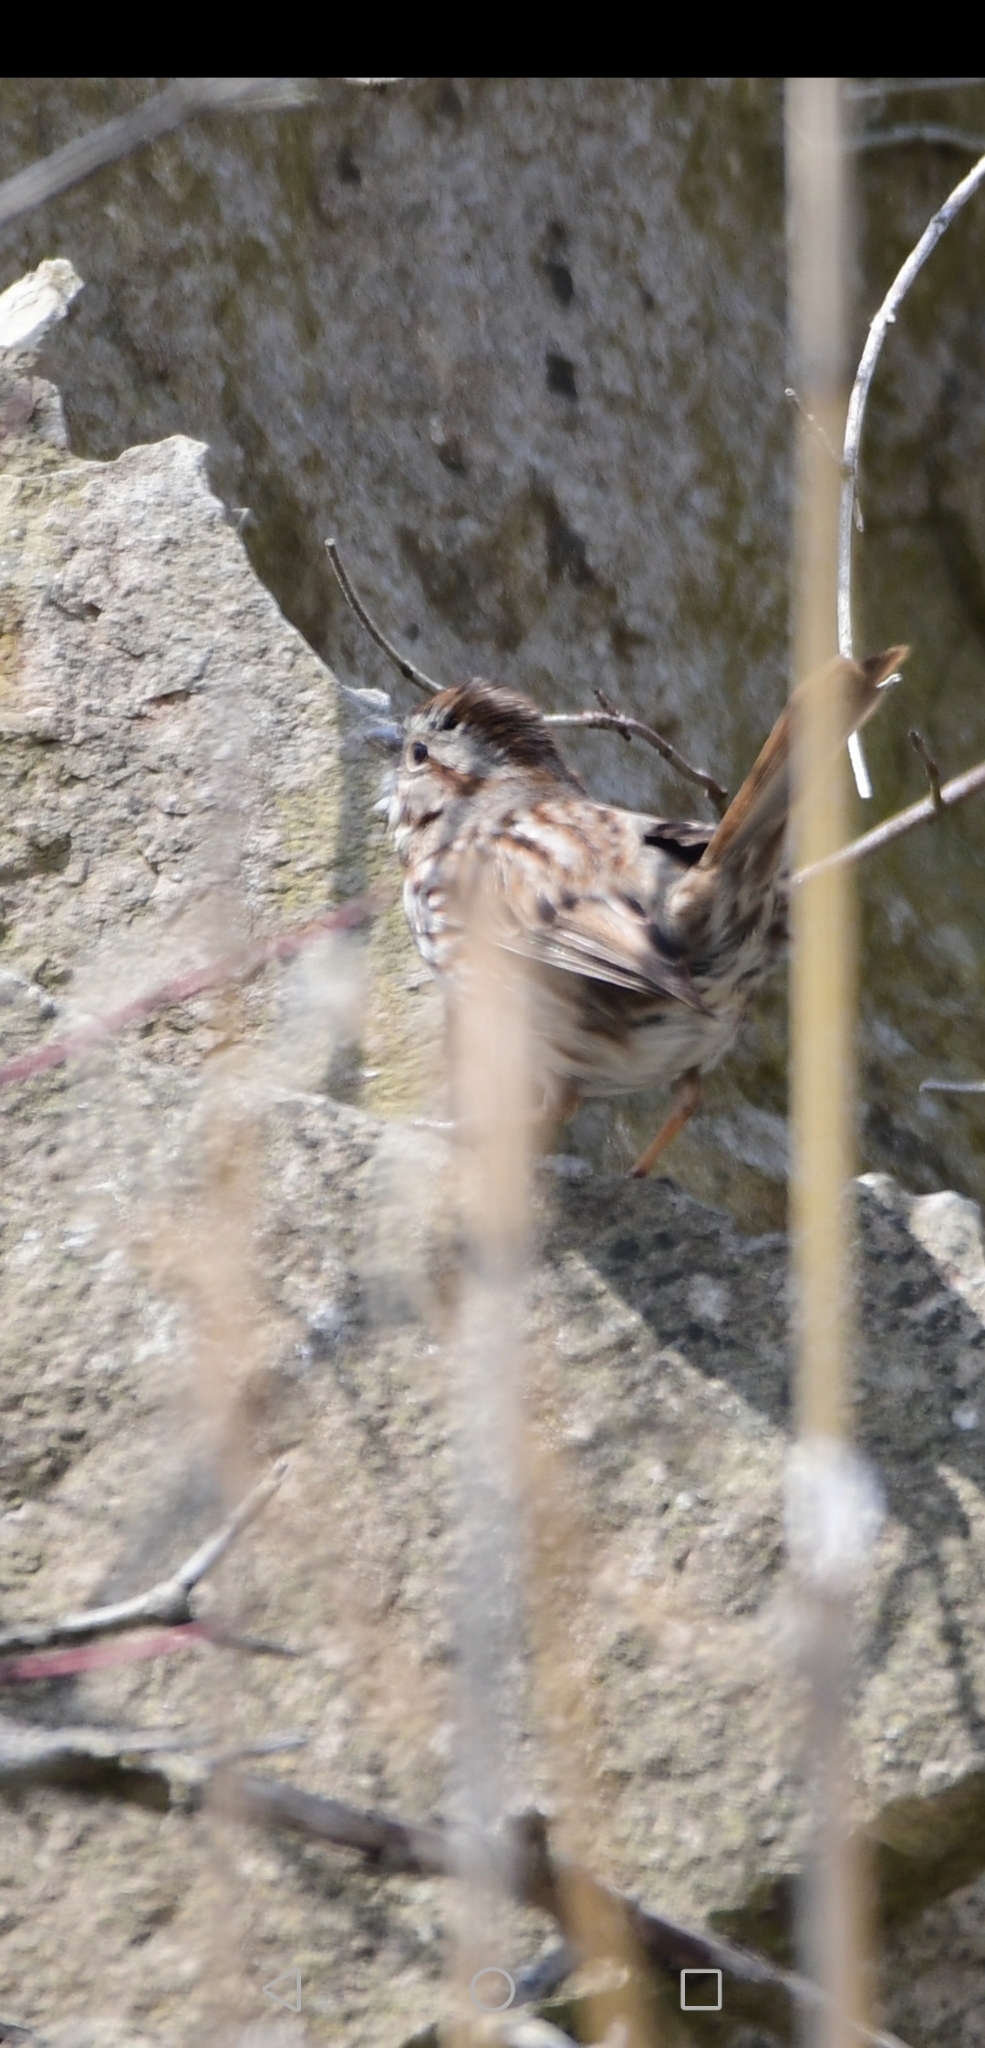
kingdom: Animalia
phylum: Chordata
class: Aves
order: Passeriformes
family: Passerellidae
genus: Melospiza
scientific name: Melospiza melodia
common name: Song sparrow
